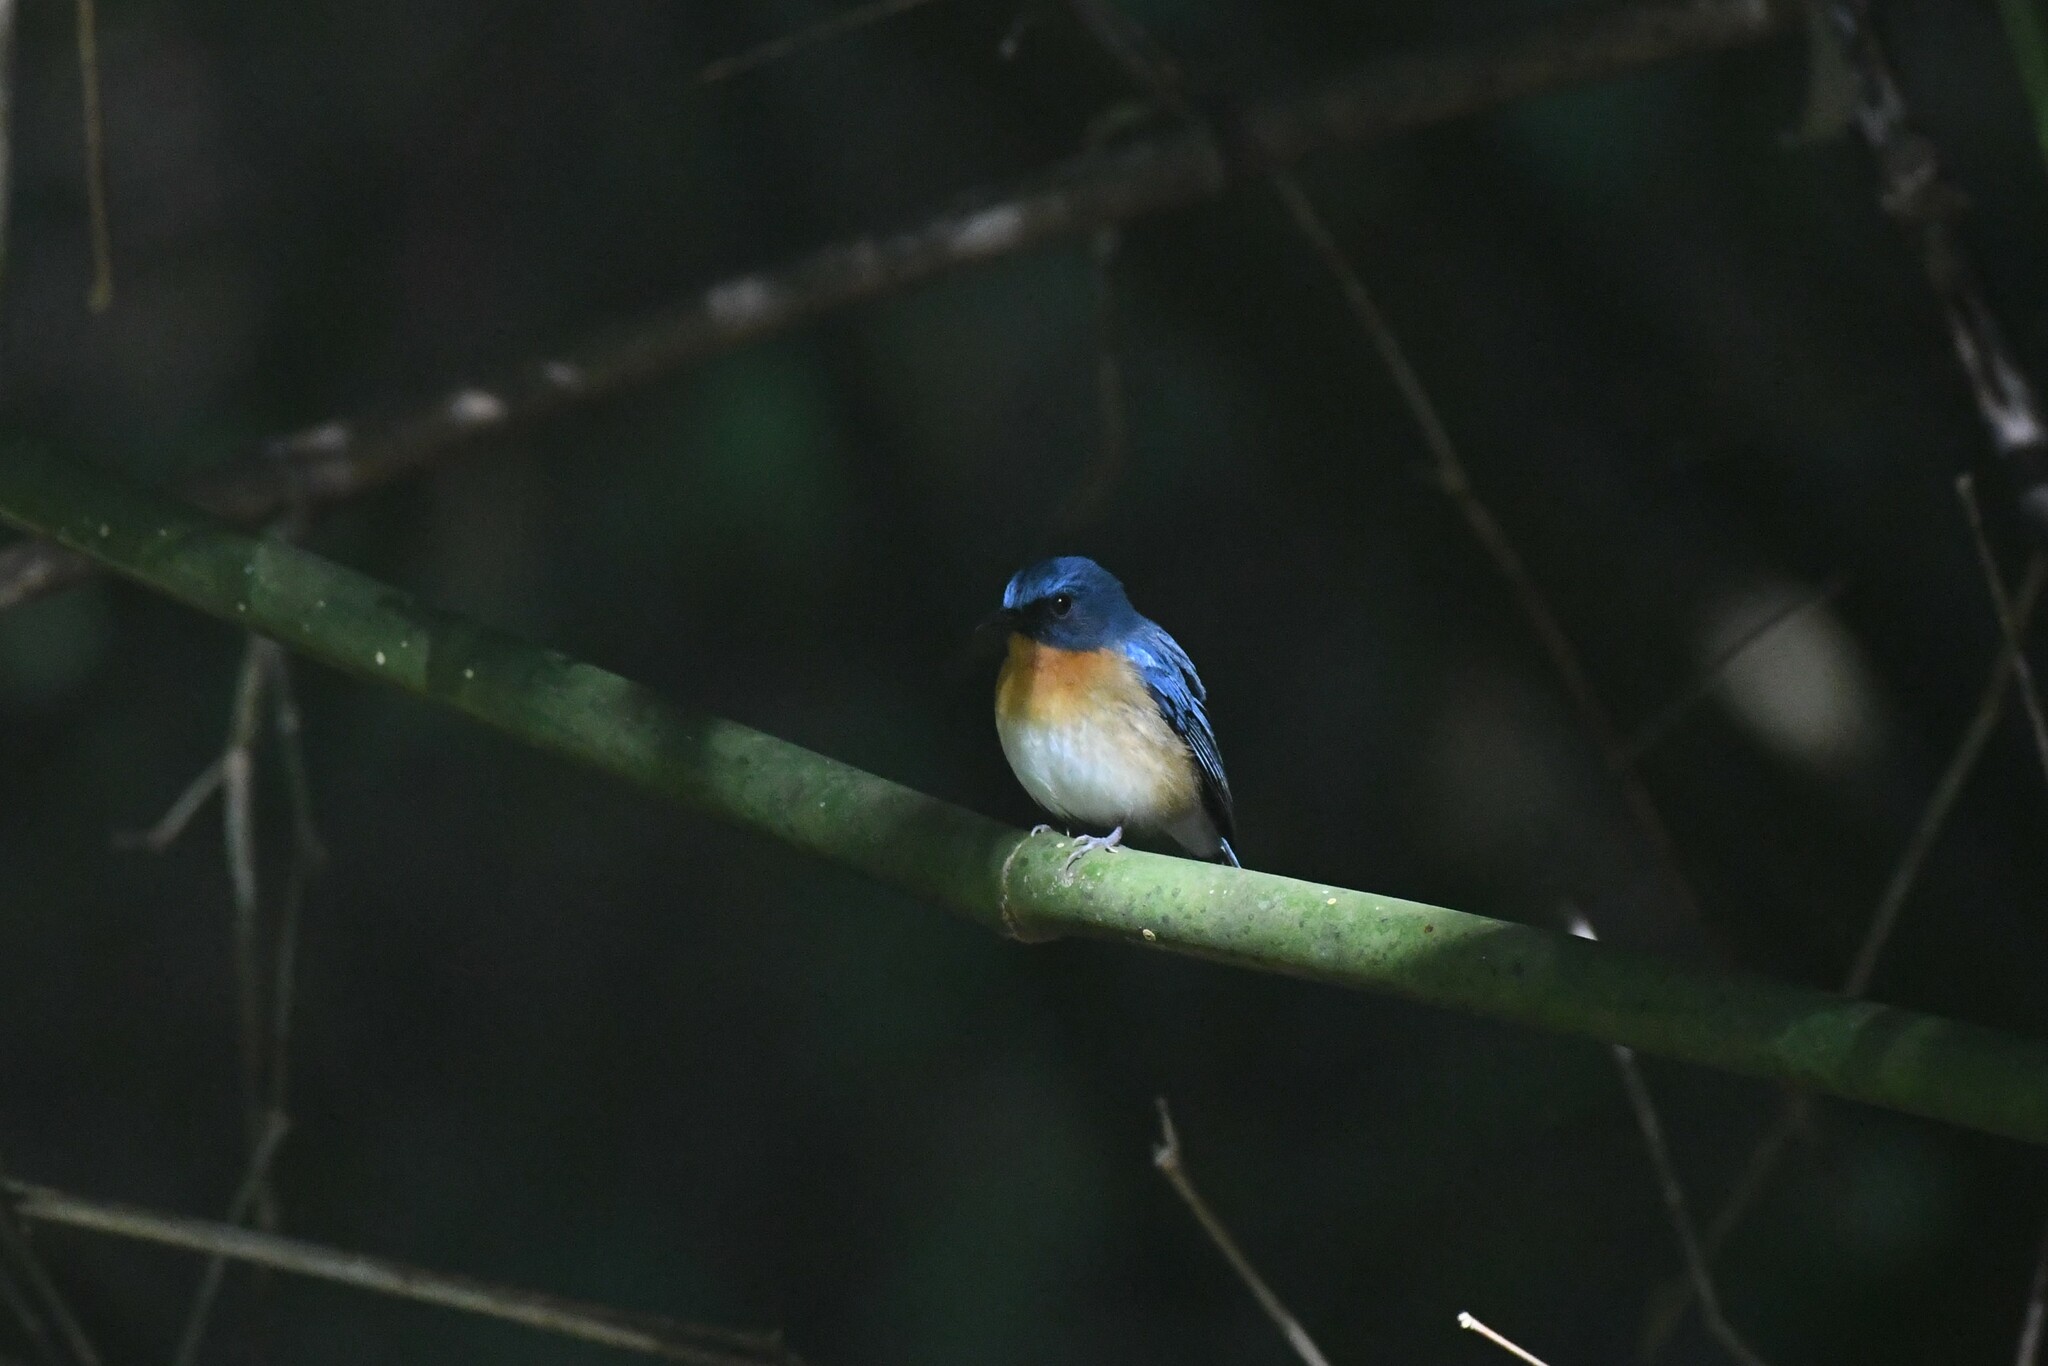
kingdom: Animalia
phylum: Chordata
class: Aves
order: Passeriformes
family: Muscicapidae
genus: Cyornis
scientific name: Cyornis whitei
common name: Hill blue flycatcher
